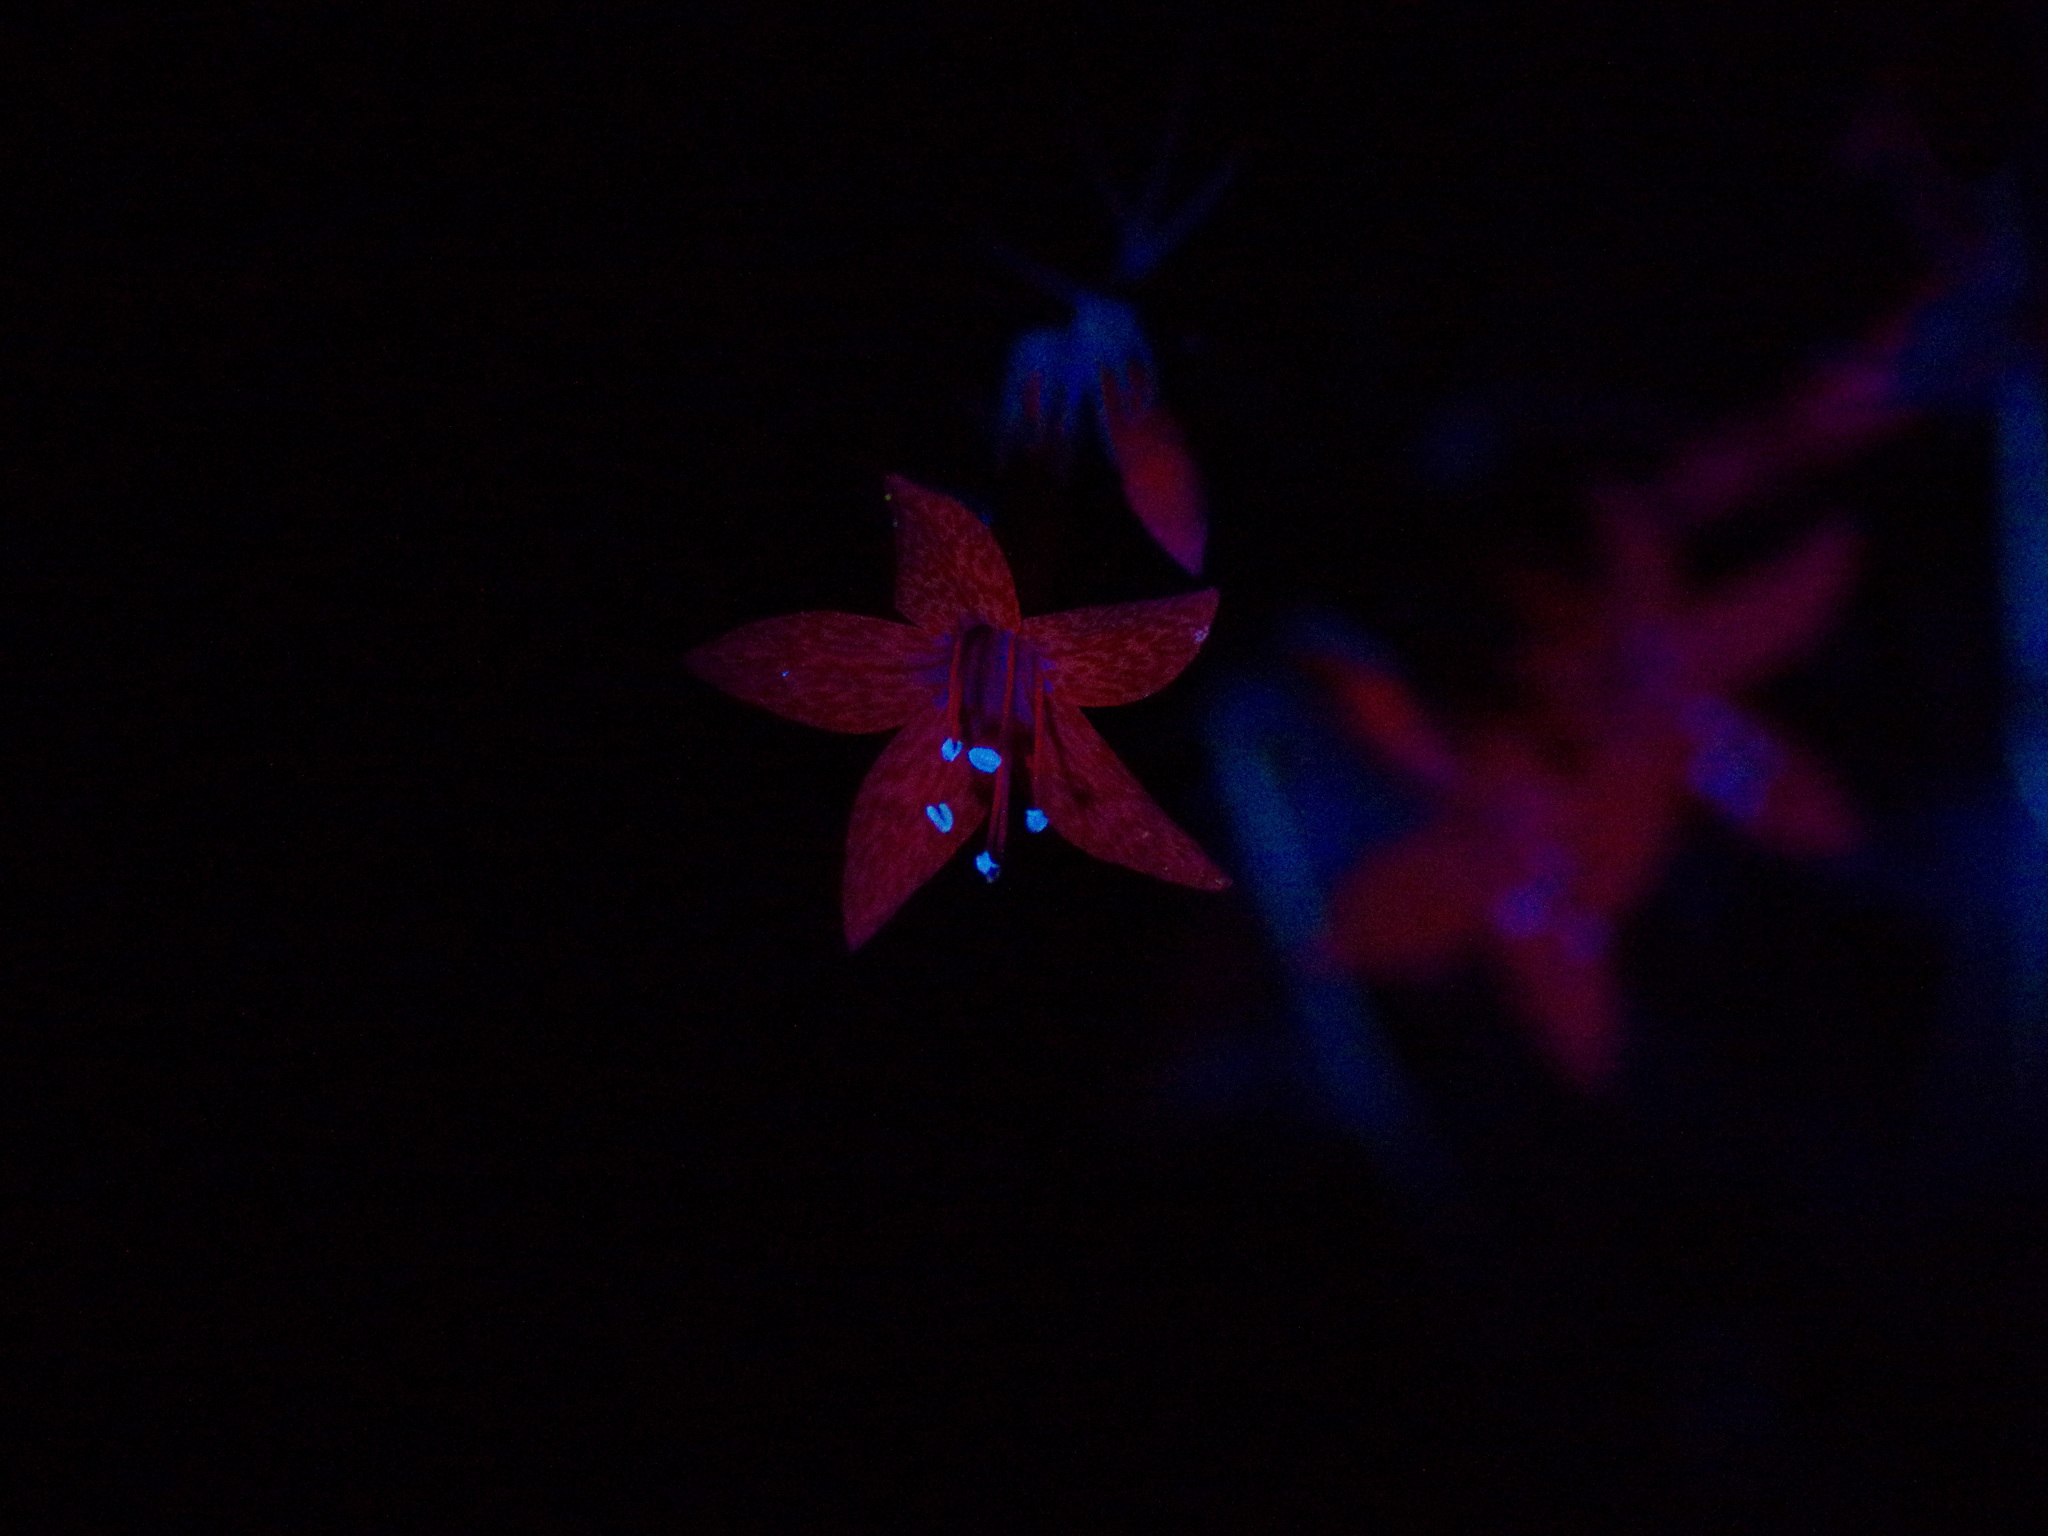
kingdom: Plantae
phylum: Tracheophyta
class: Magnoliopsida
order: Ericales
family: Polemoniaceae
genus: Ipomopsis
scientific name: Ipomopsis rubra
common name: Skyrocket
